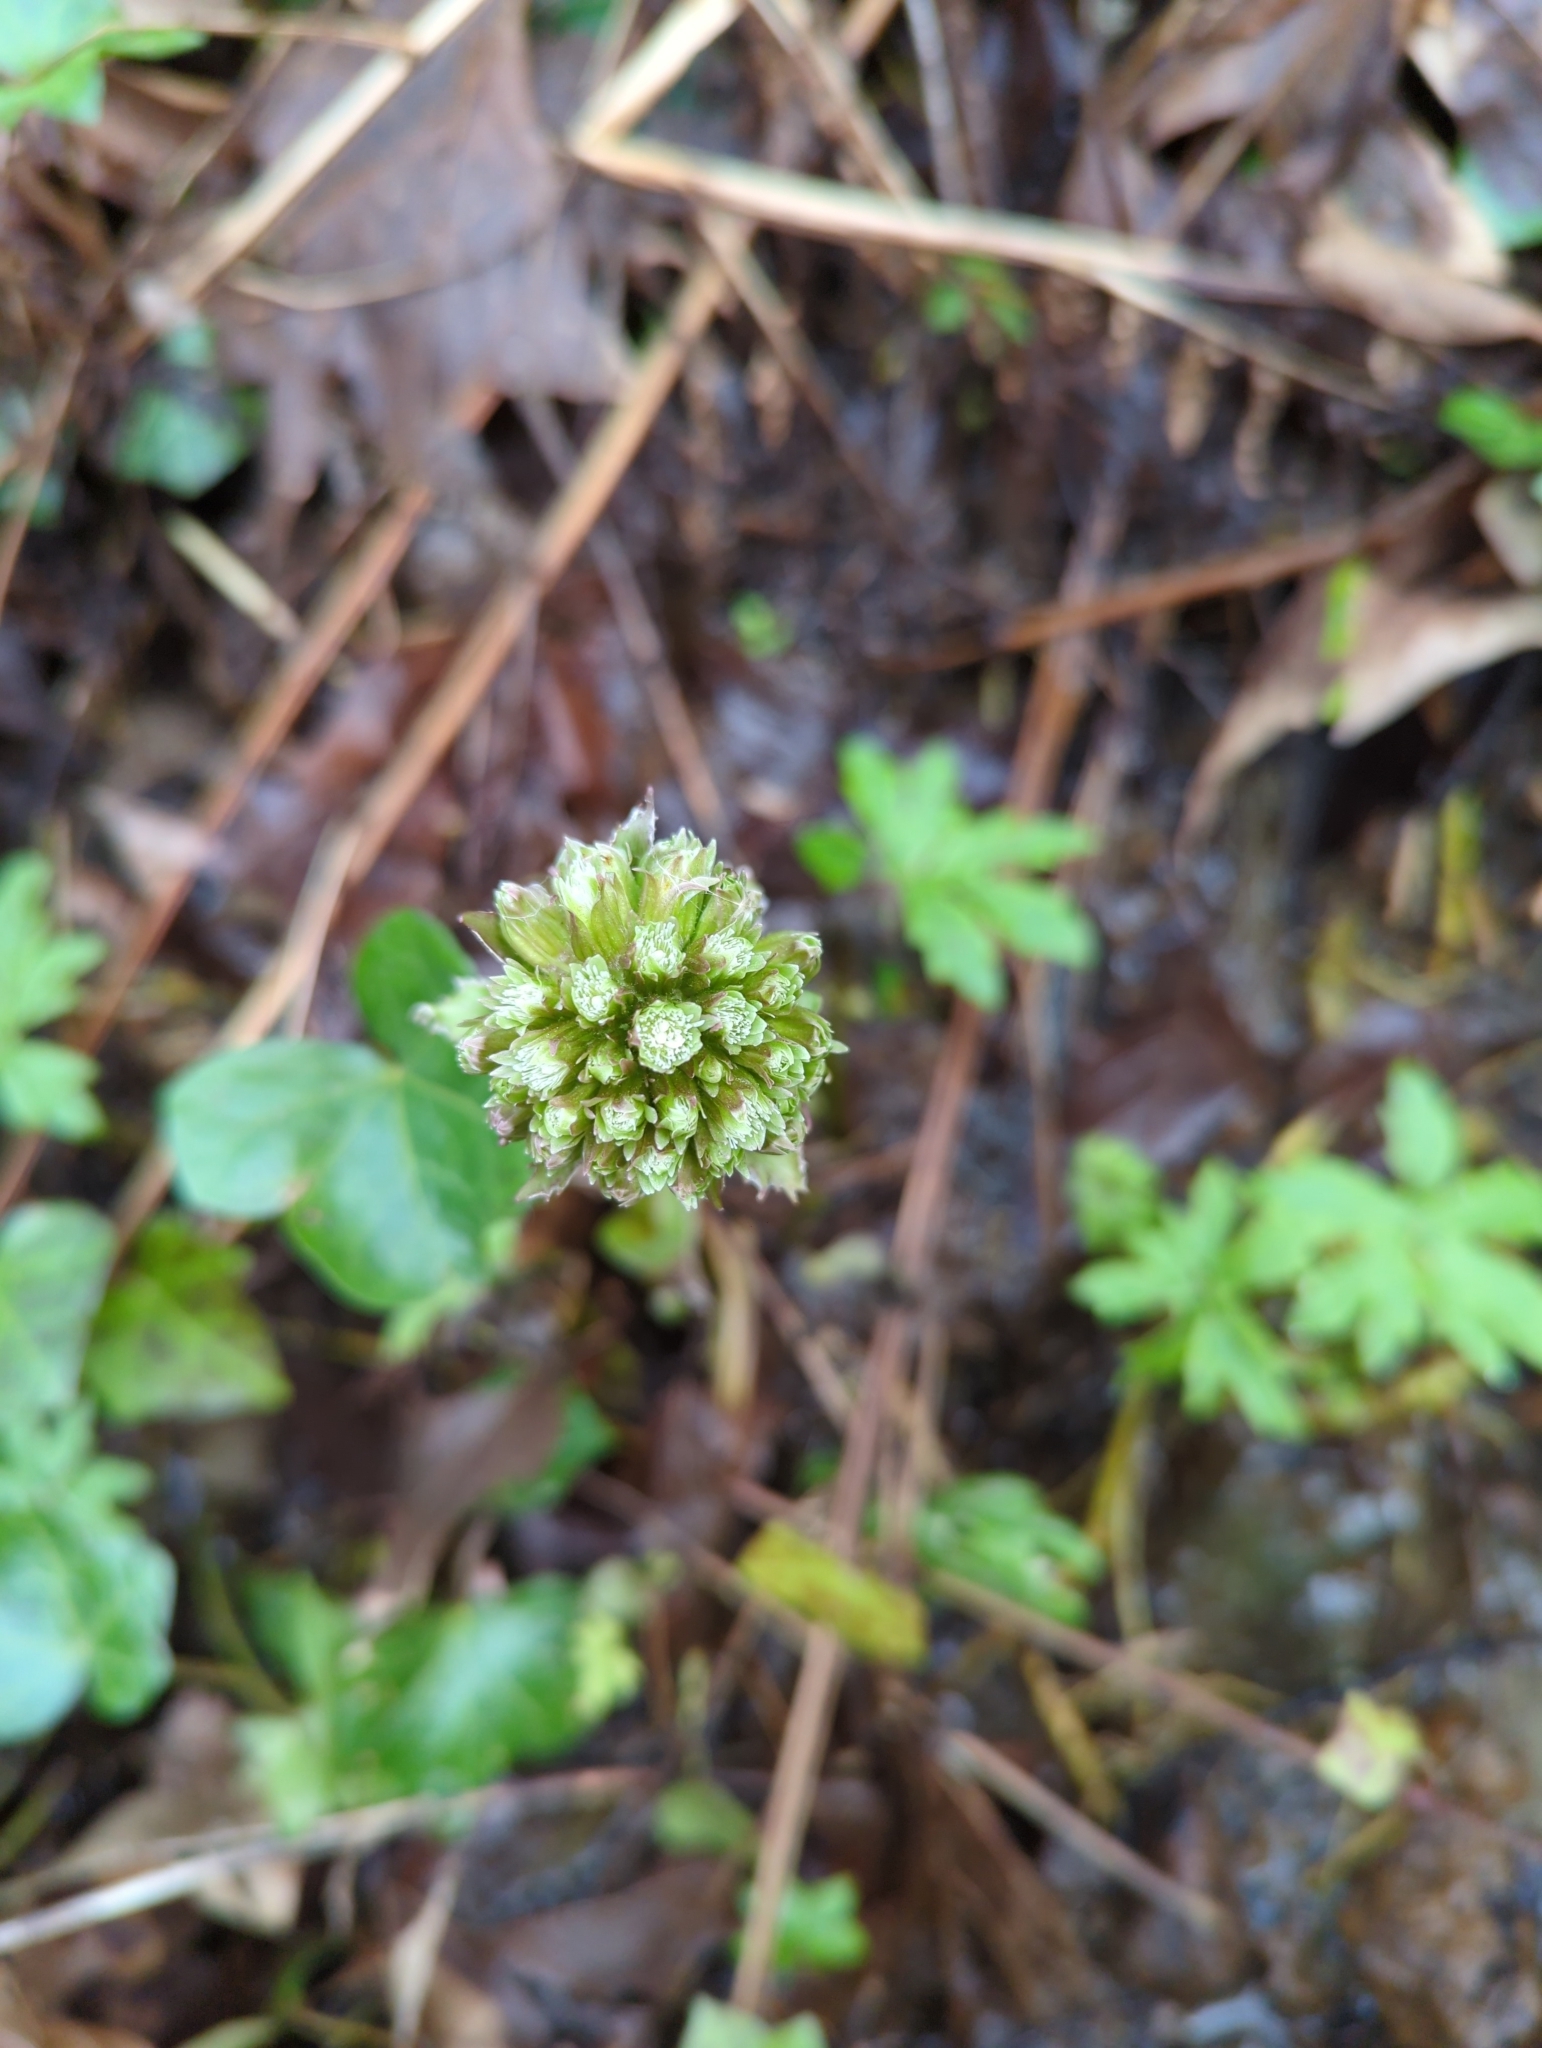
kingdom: Plantae
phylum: Tracheophyta
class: Magnoliopsida
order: Asterales
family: Asteraceae
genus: Petasites
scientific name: Petasites frigidus
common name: Arctic butterbur
